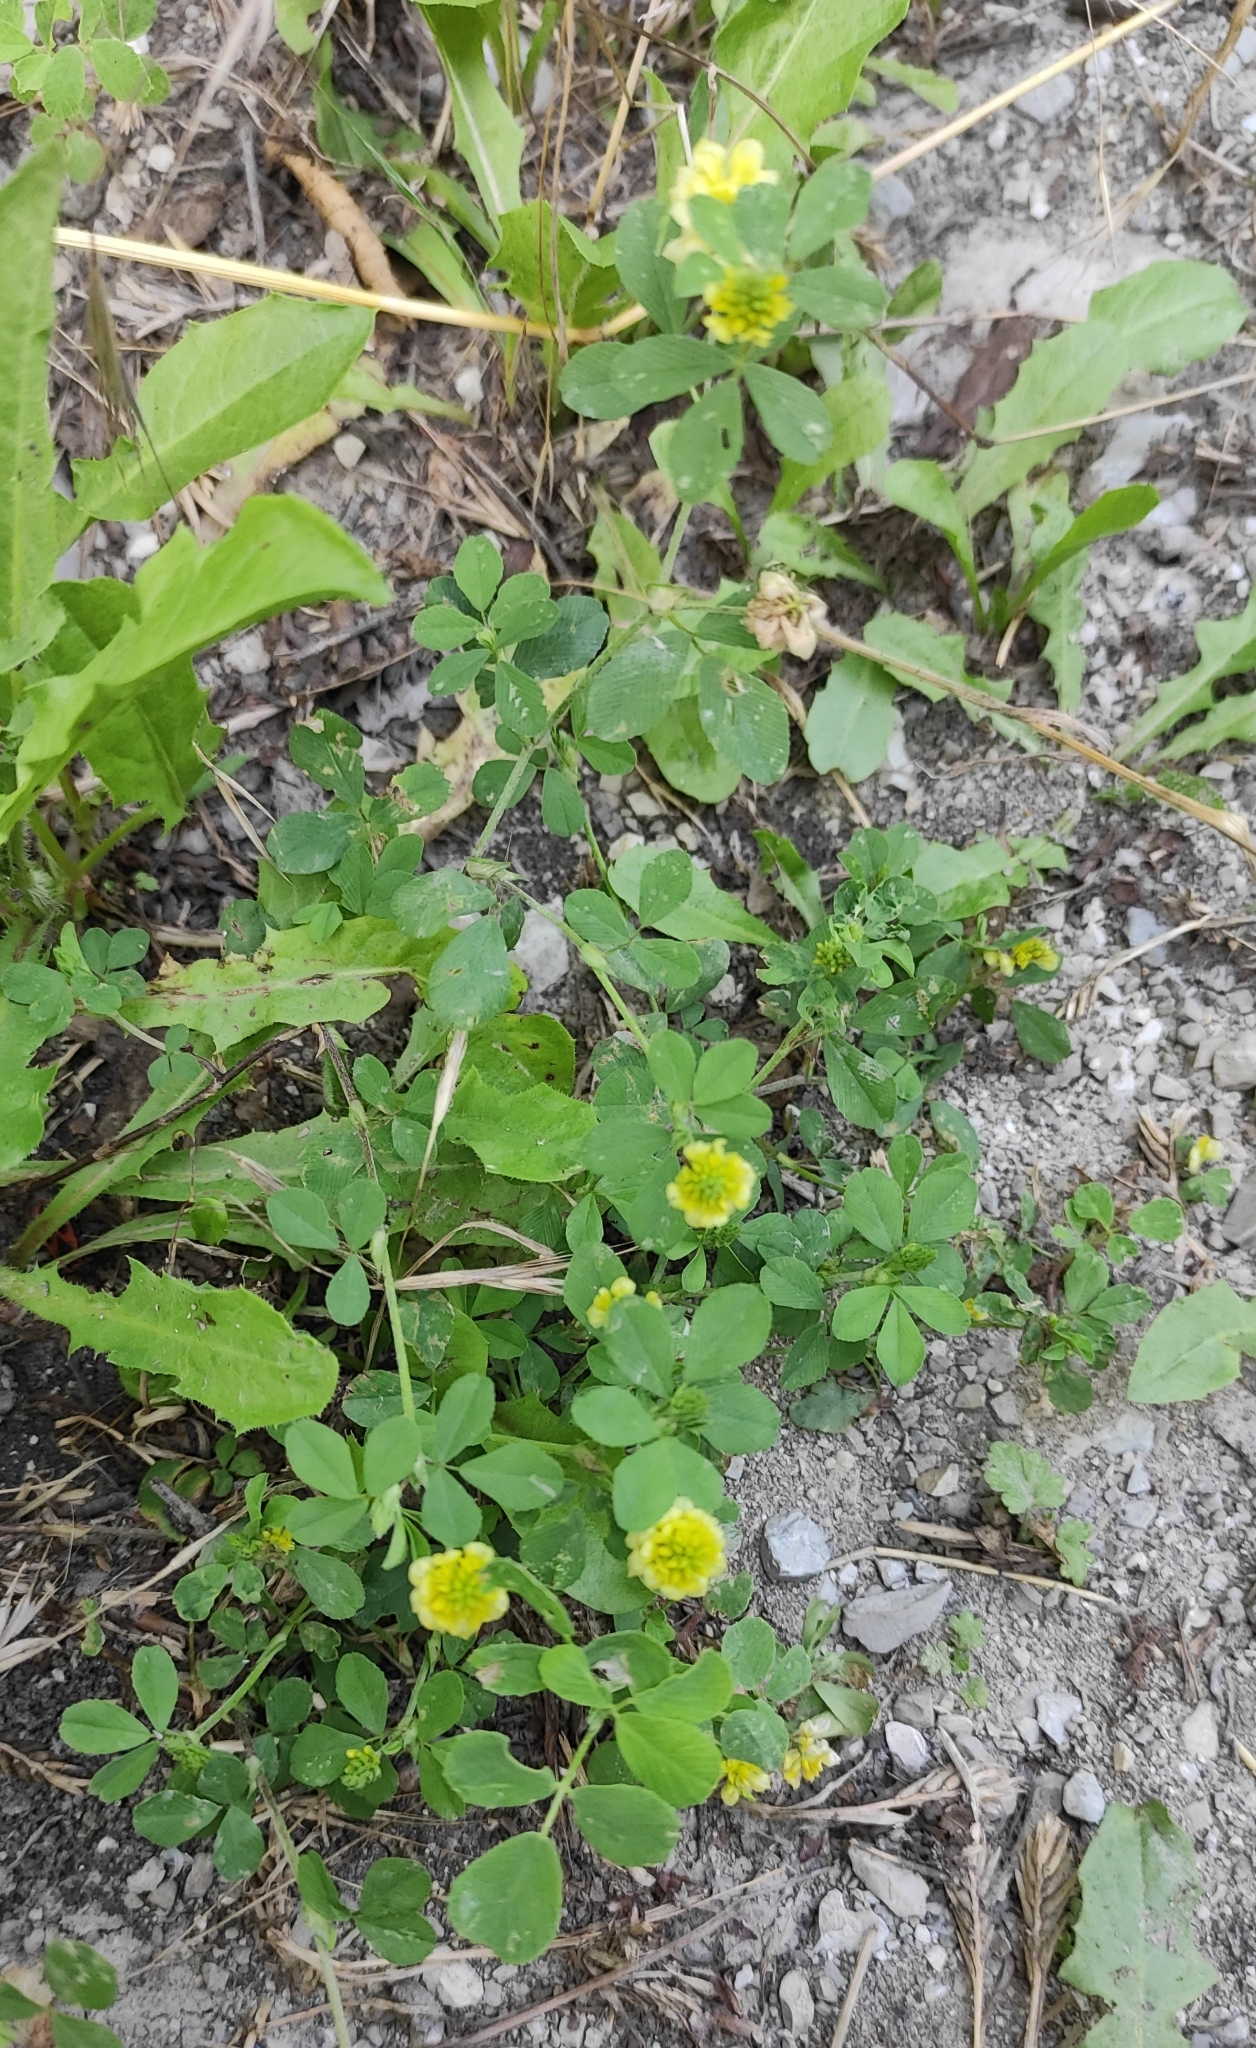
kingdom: Plantae
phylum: Tracheophyta
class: Magnoliopsida
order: Fabales
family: Fabaceae
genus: Trifolium
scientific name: Trifolium campestre
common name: Field clover
